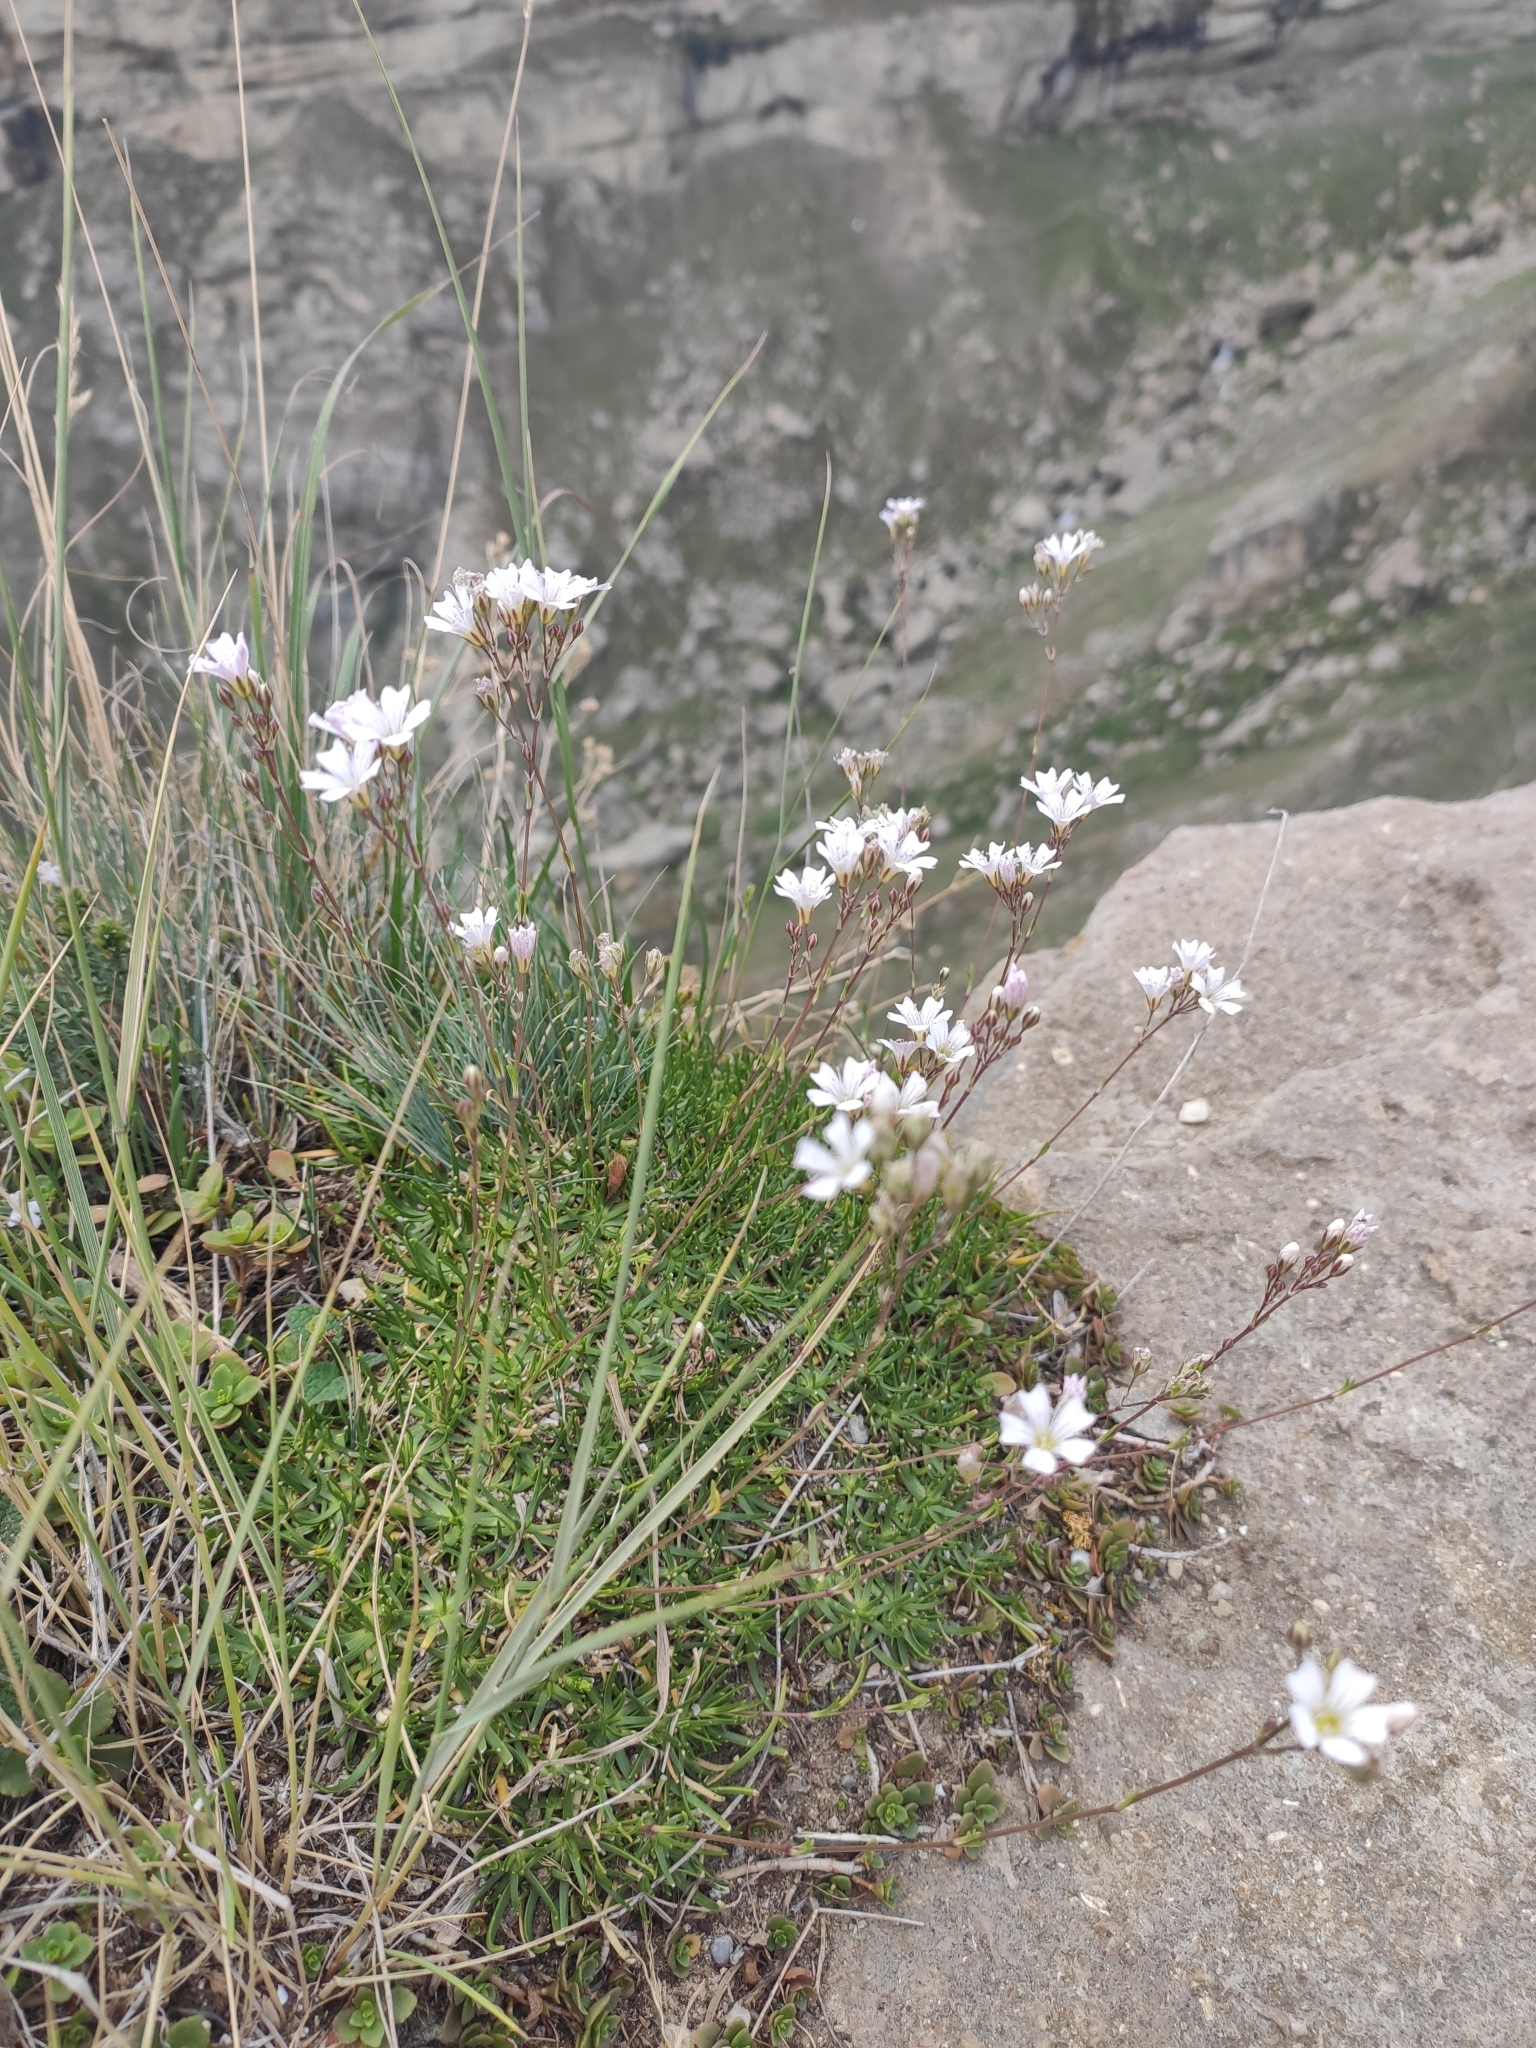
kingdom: Plantae
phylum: Tracheophyta
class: Magnoliopsida
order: Caryophyllales
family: Caryophyllaceae
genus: Gypsophila
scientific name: Gypsophila tenuifolia
